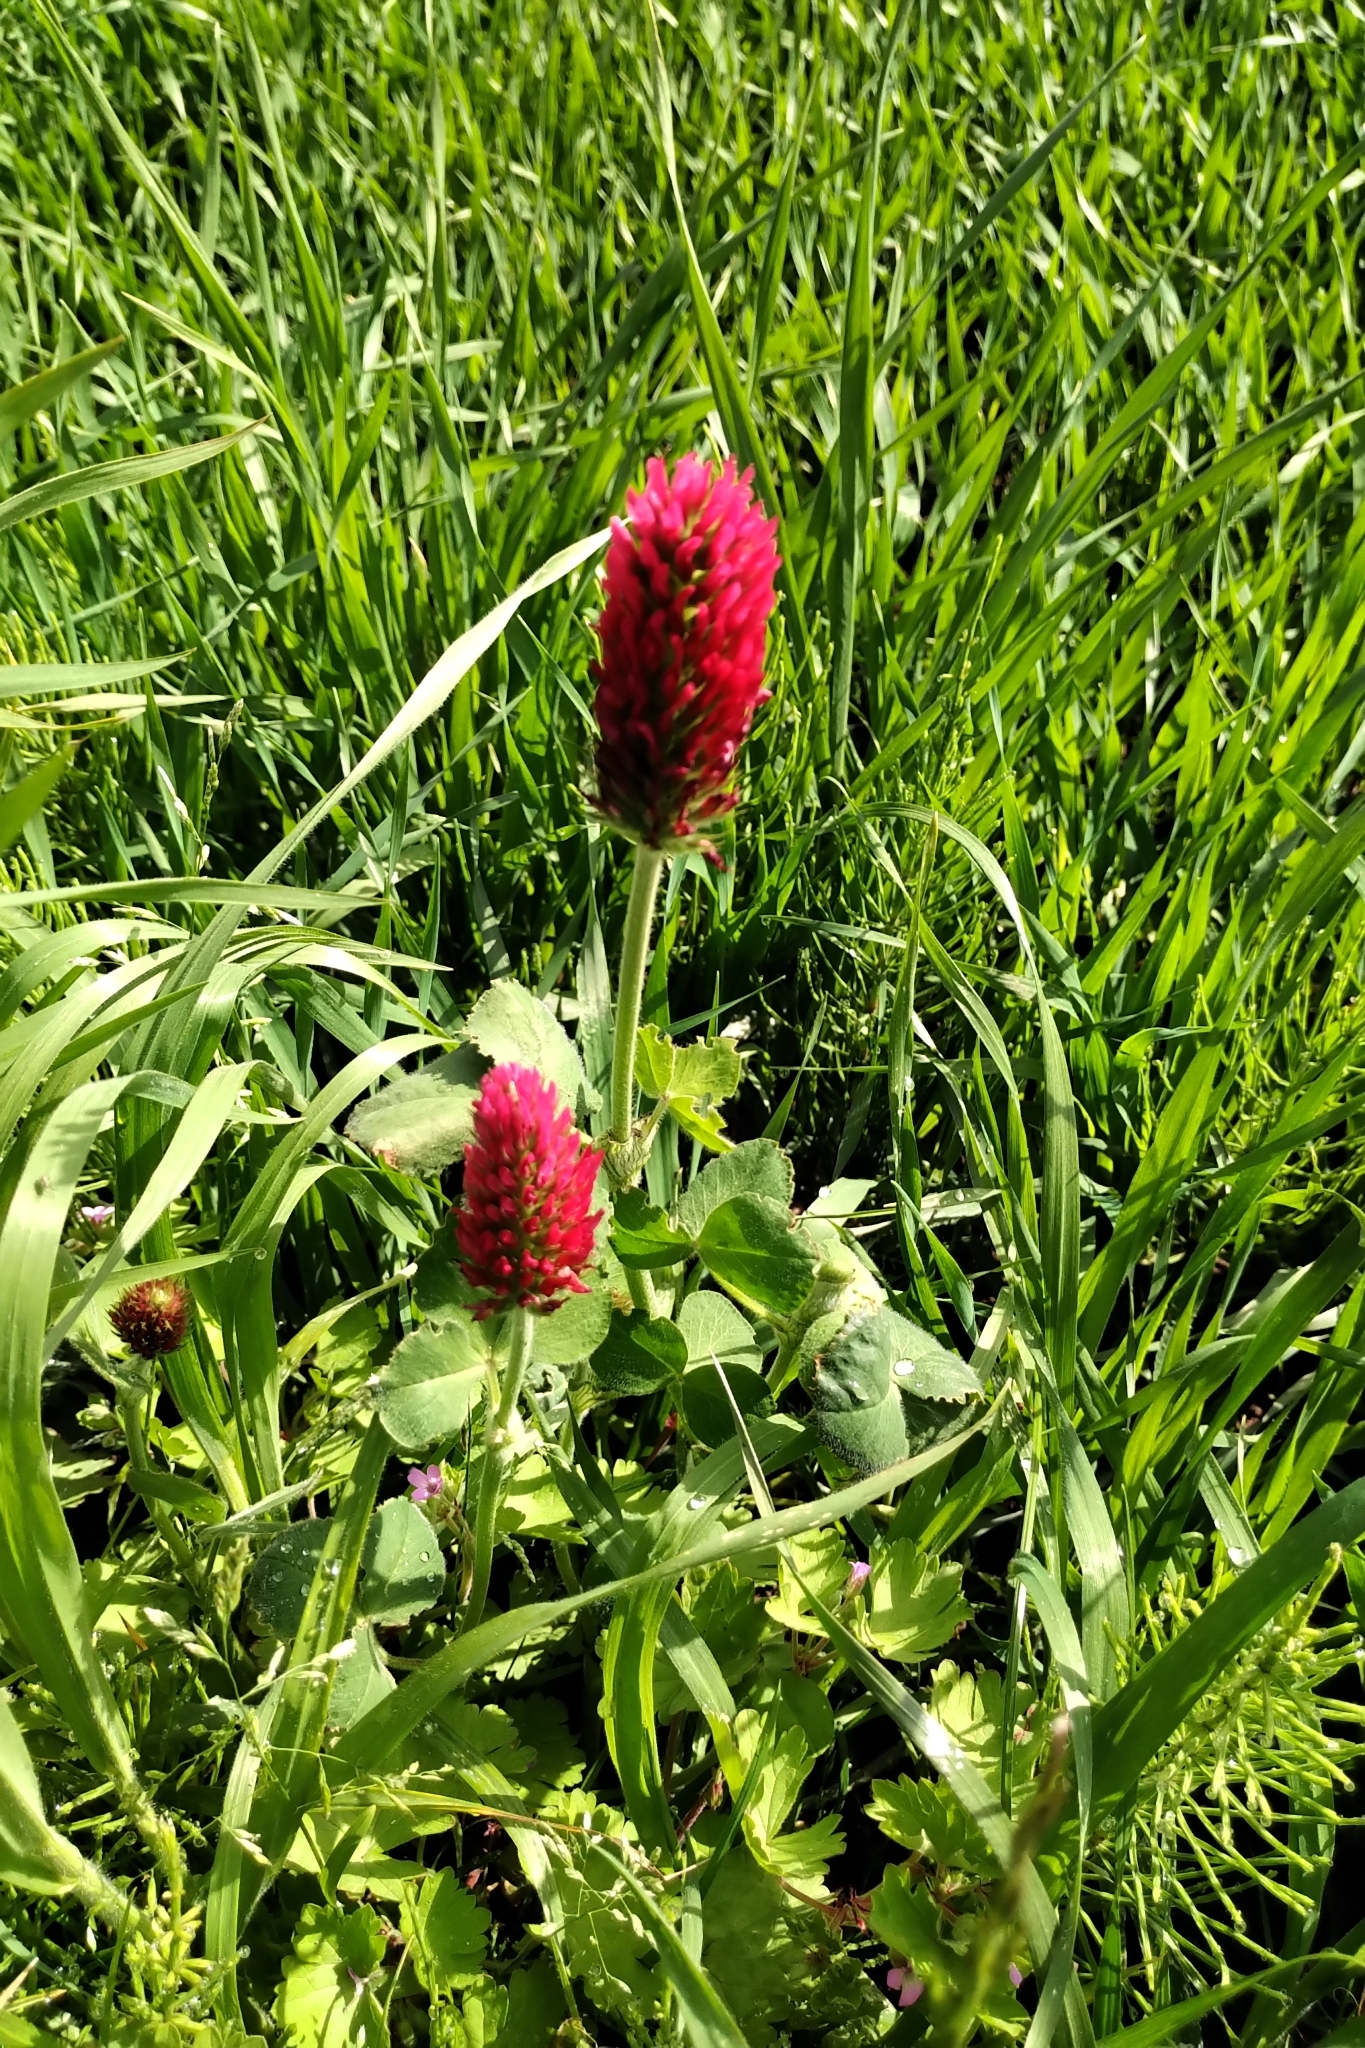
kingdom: Plantae
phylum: Tracheophyta
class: Magnoliopsida
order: Fabales
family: Fabaceae
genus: Trifolium
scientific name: Trifolium incarnatum
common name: Crimson clover
